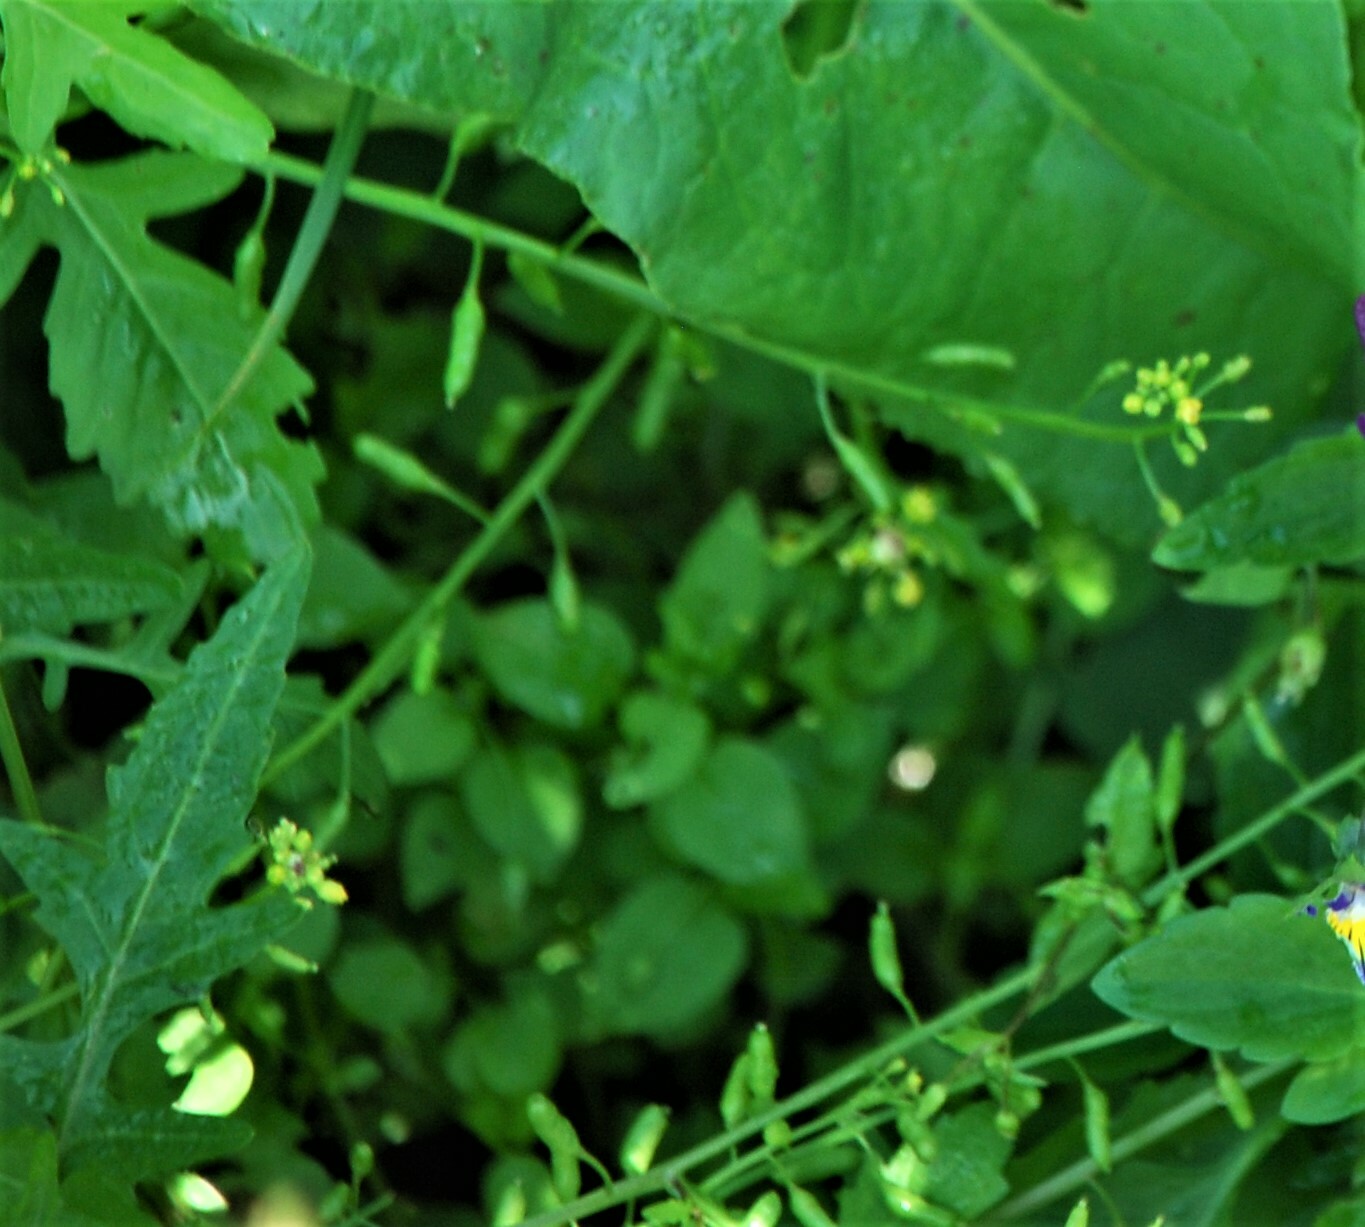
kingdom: Plantae
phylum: Tracheophyta
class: Magnoliopsida
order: Brassicales
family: Brassicaceae
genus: Rorippa
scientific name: Rorippa palustris
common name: Marsh yellow-cress
